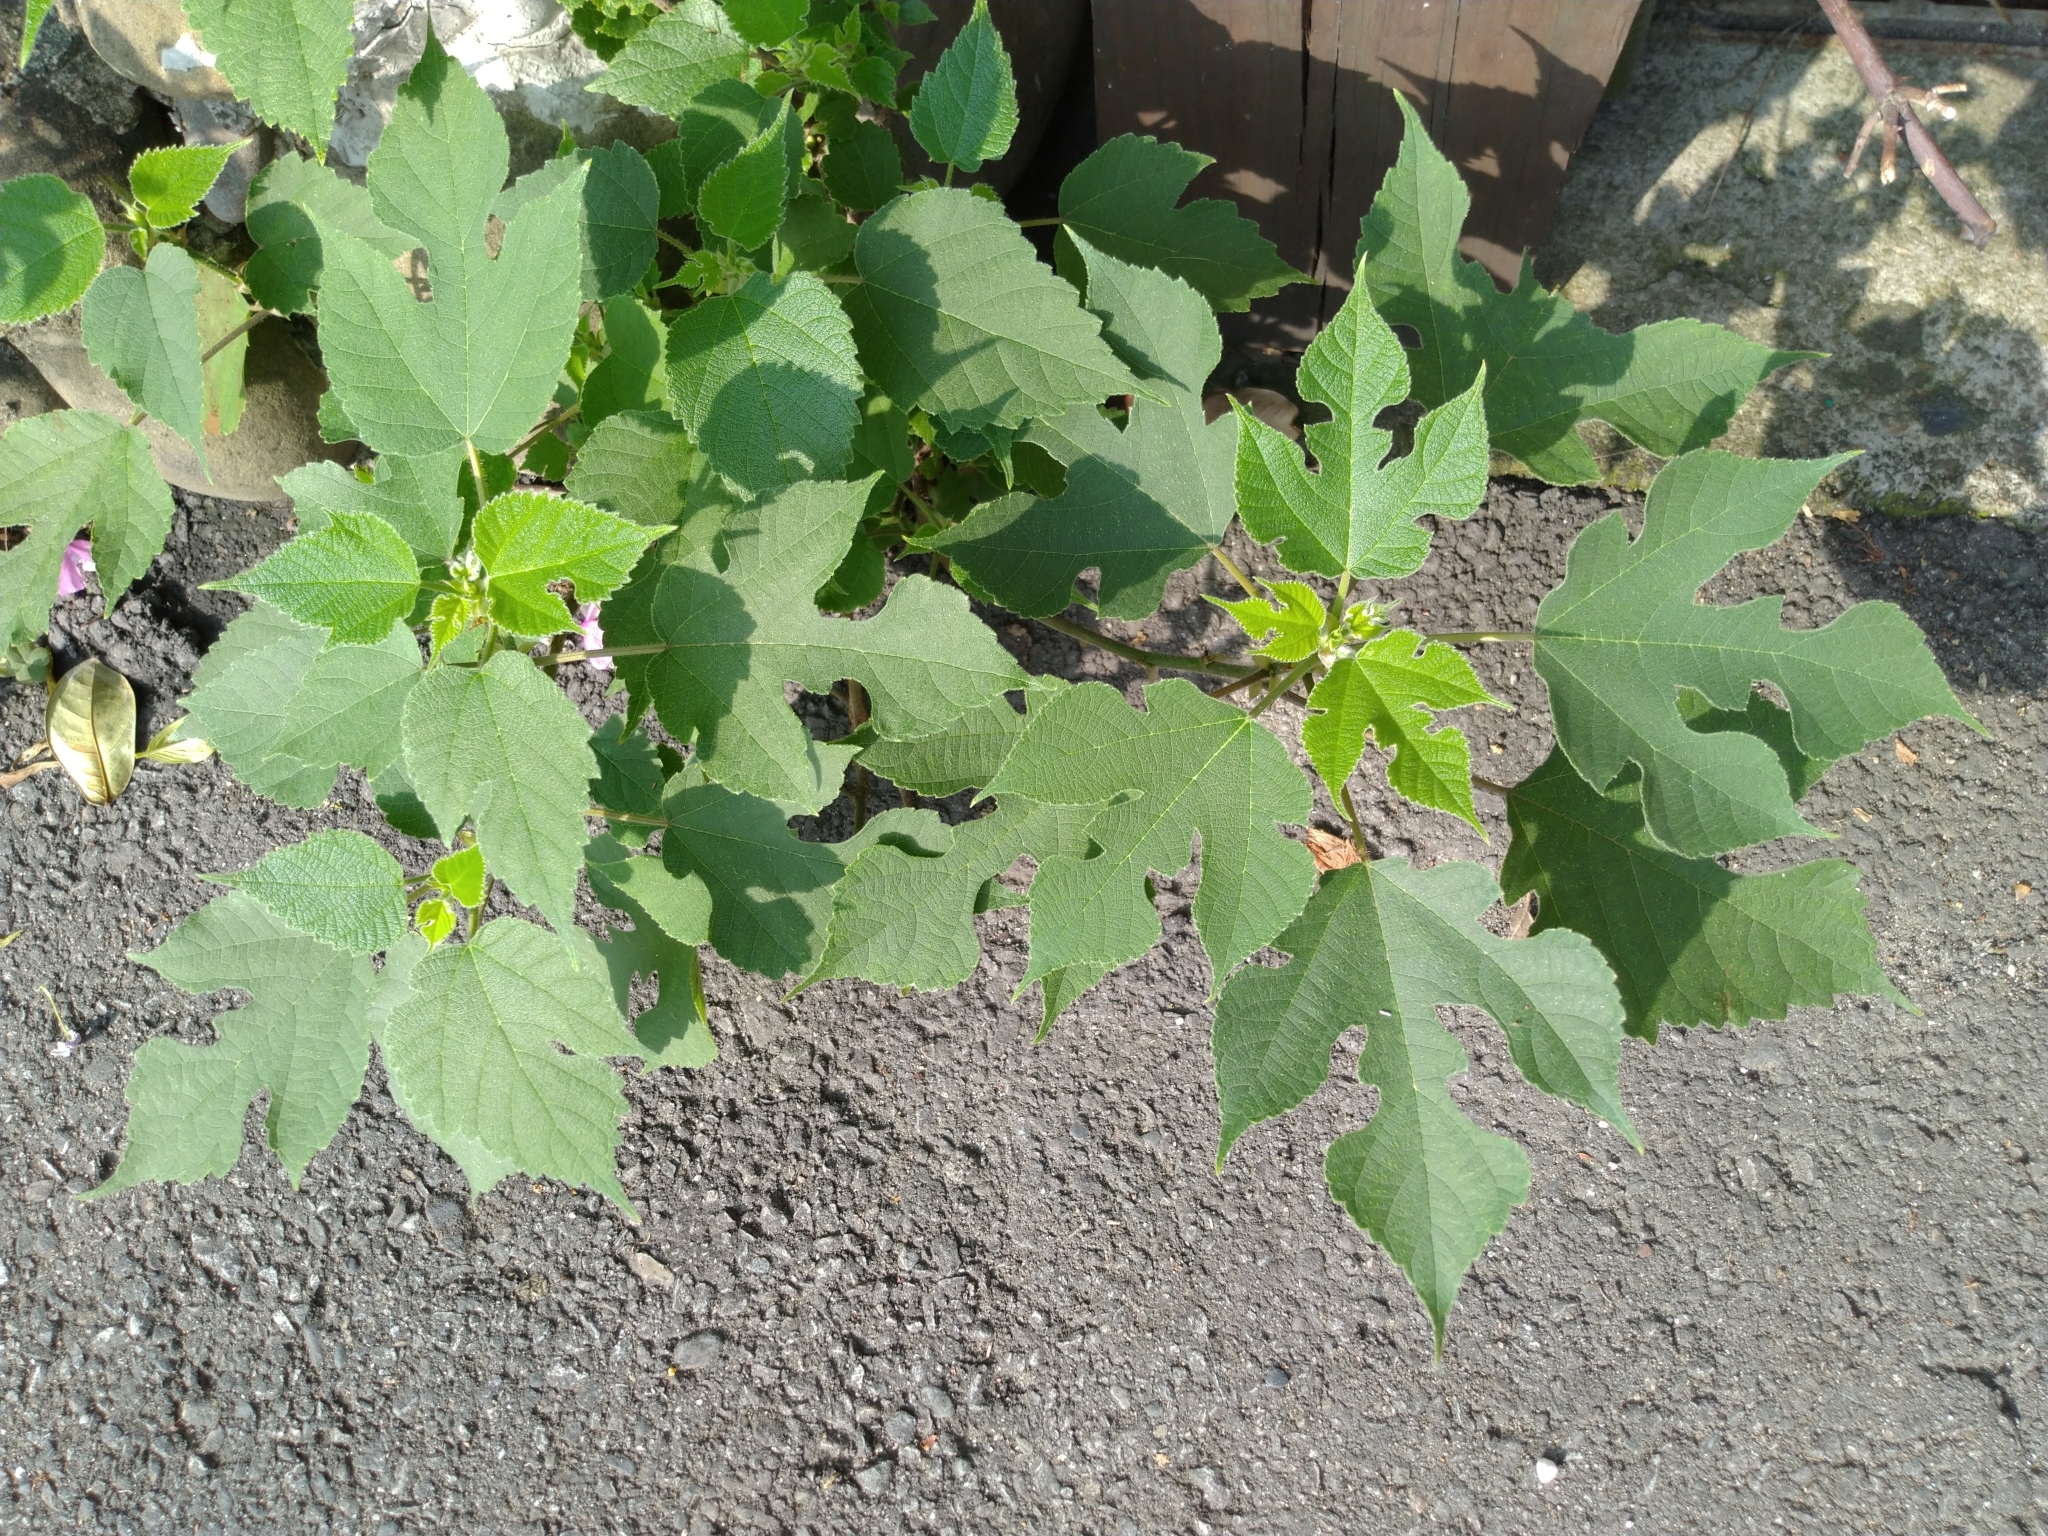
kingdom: Plantae
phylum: Tracheophyta
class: Magnoliopsida
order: Rosales
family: Moraceae
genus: Broussonetia
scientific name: Broussonetia papyrifera
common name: Paper mulberry
